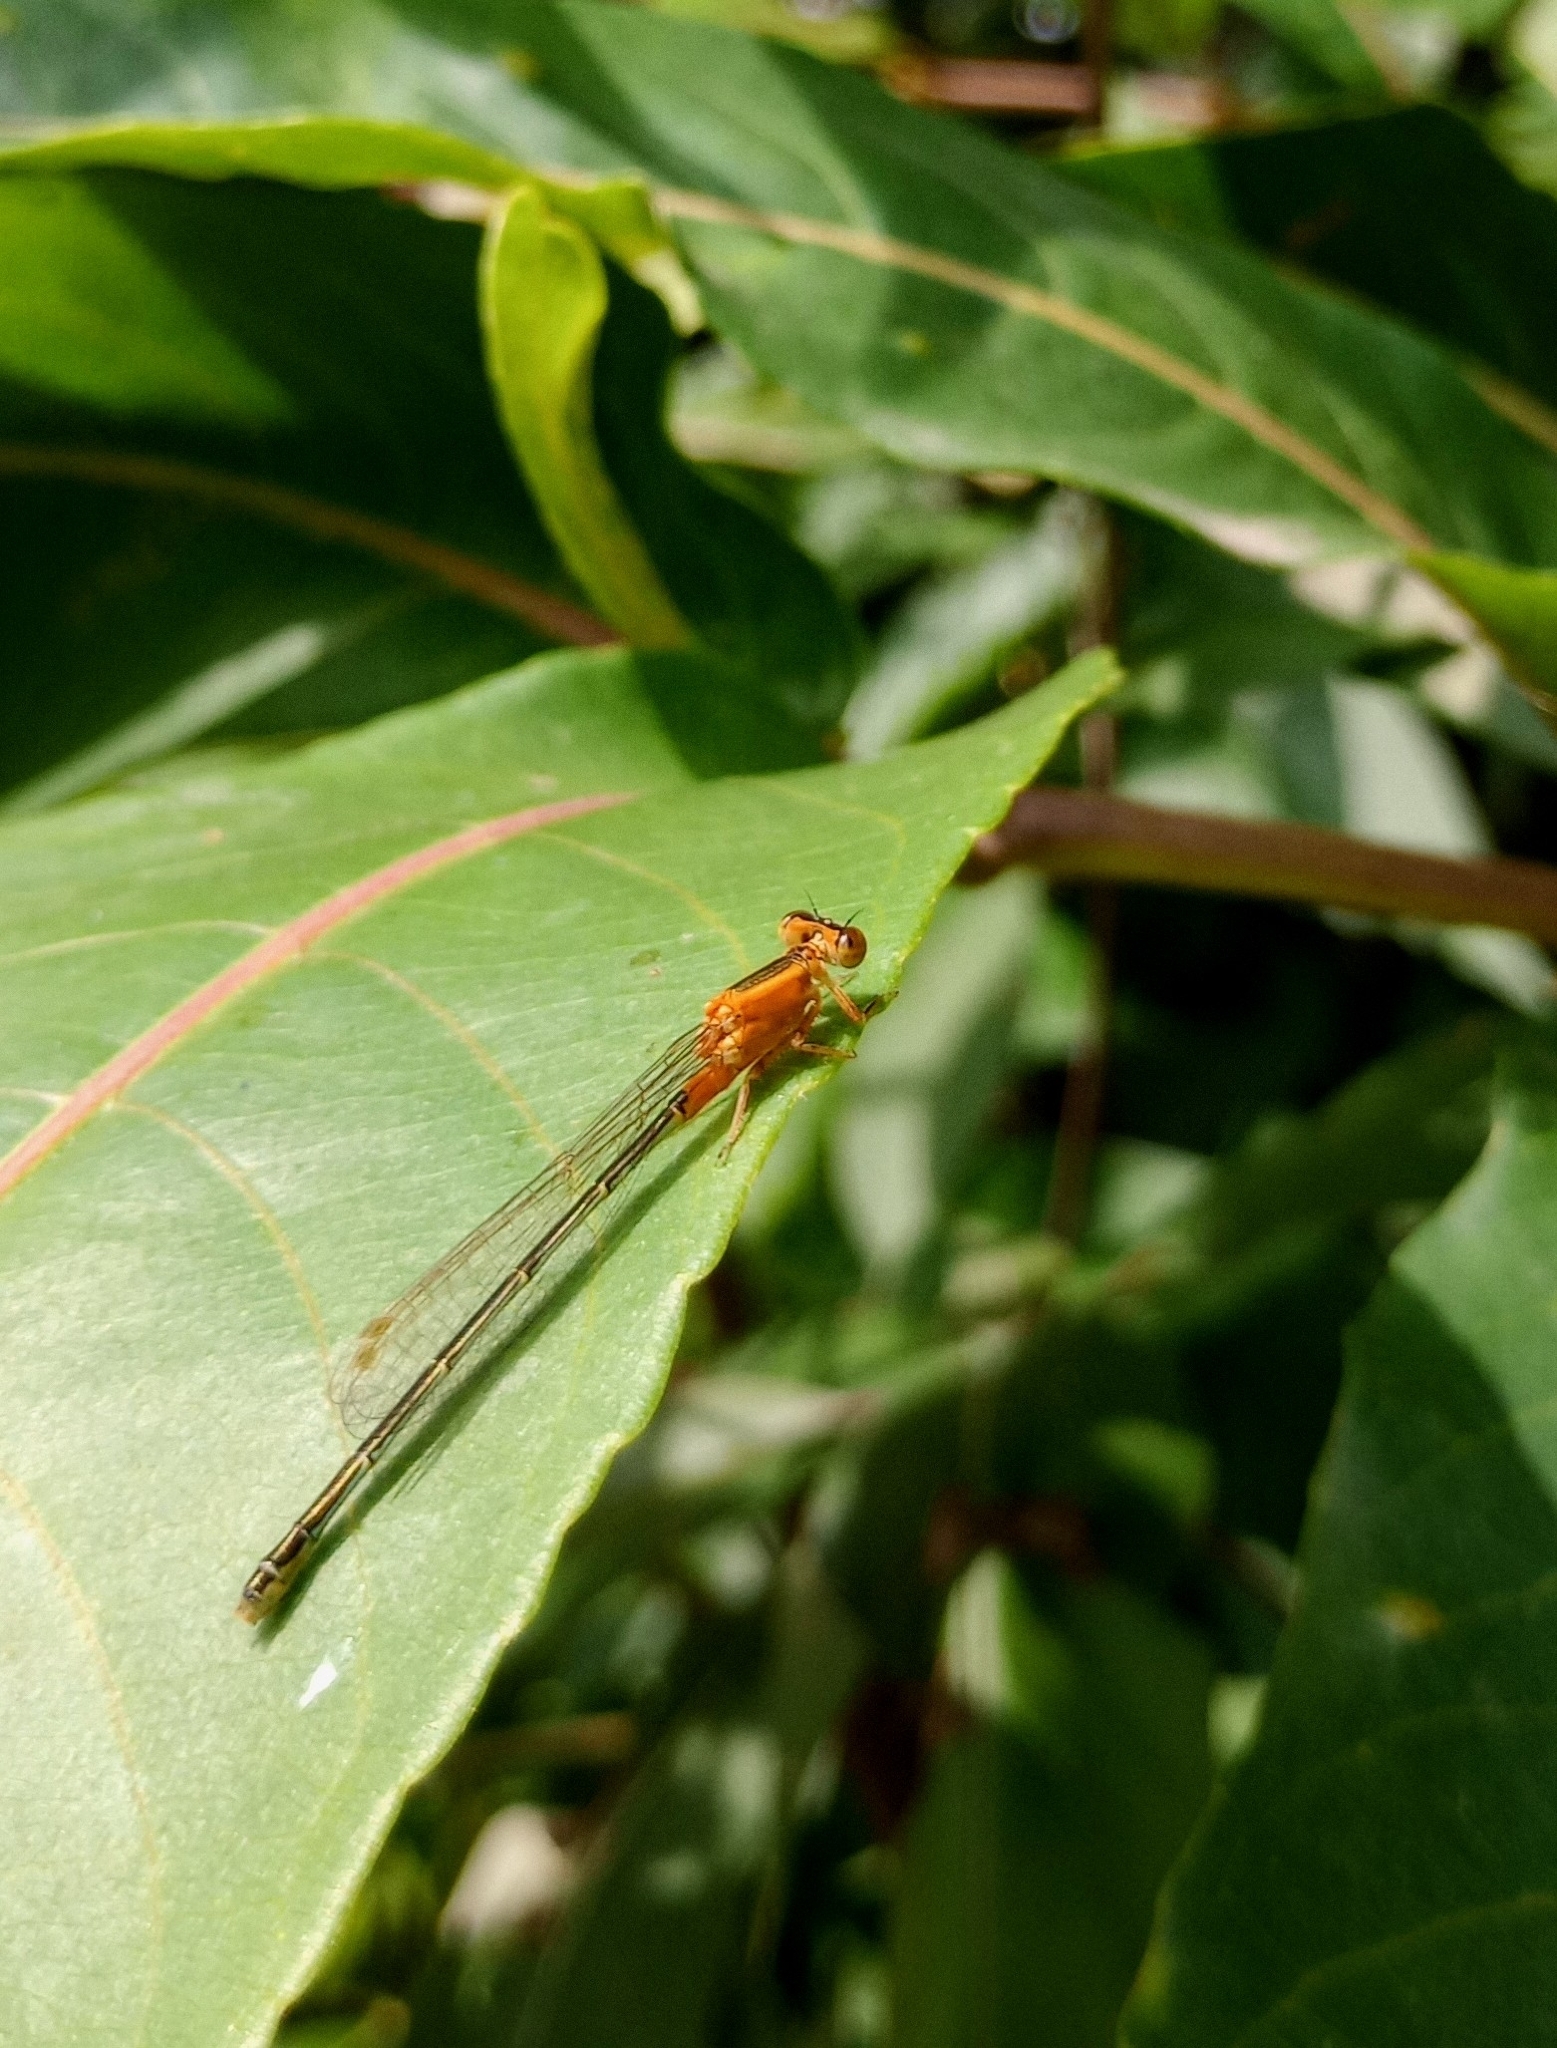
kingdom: Animalia
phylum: Arthropoda
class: Insecta
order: Odonata
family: Coenagrionidae
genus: Ischnura
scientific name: Ischnura senegalensis
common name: Tropical bluetail
